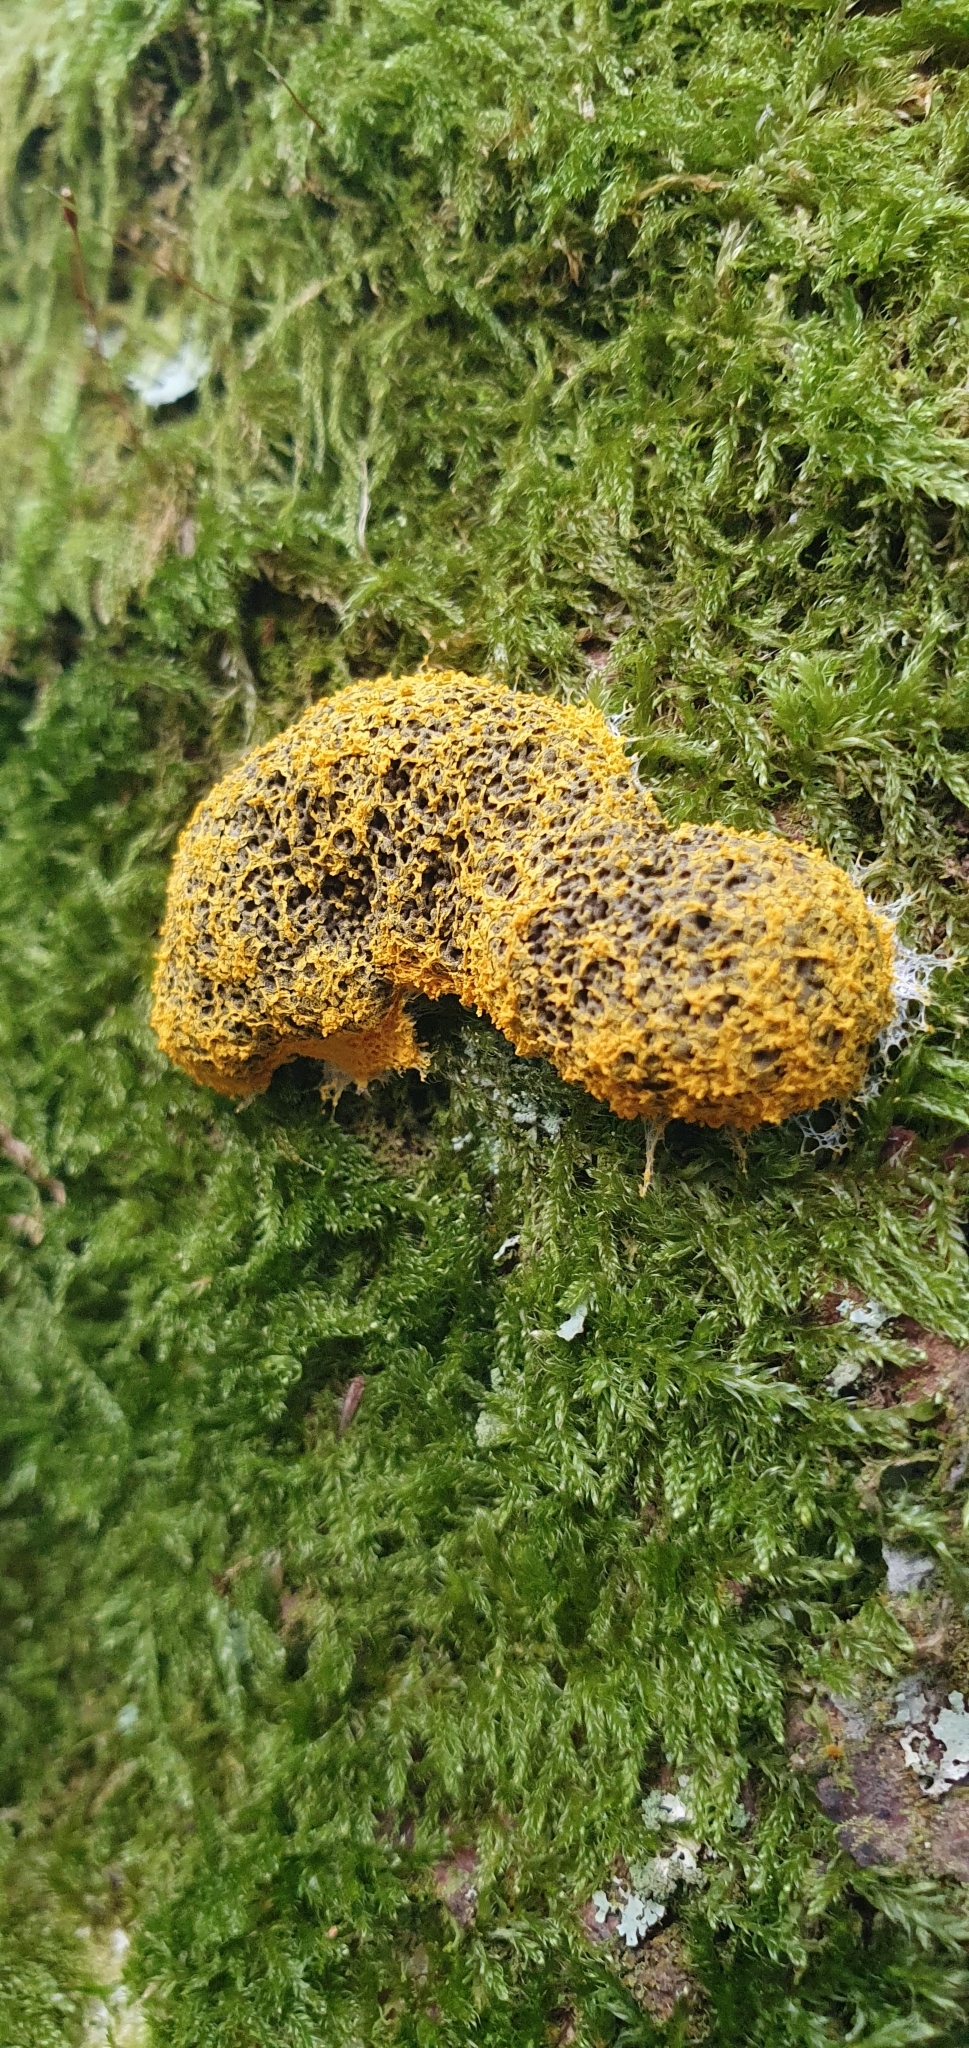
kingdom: Protozoa
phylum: Mycetozoa
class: Myxomycetes
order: Physarales
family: Physaraceae
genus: Fuligo
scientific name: Fuligo septica
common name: Dog vomit slime mold
